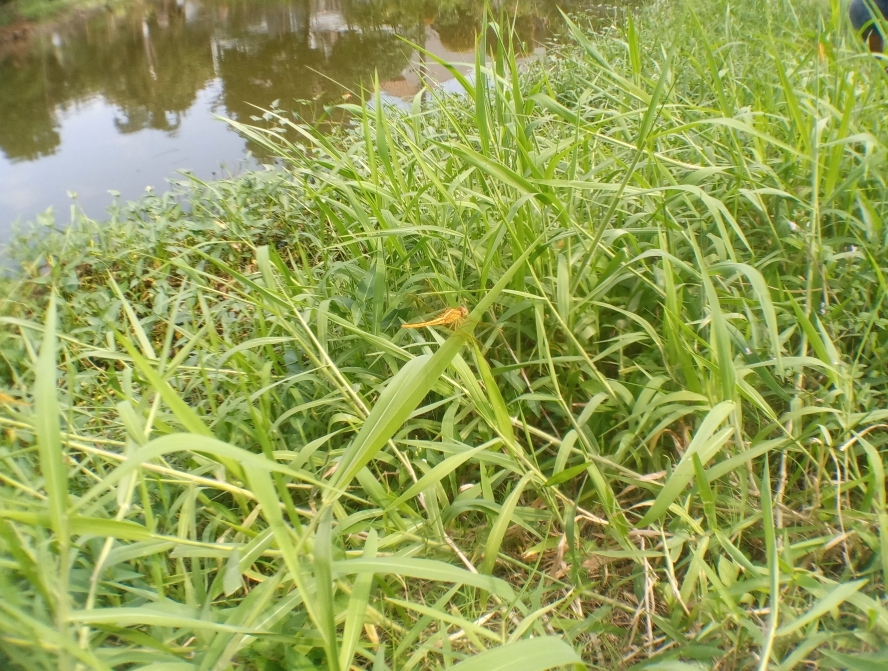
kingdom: Animalia
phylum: Arthropoda
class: Insecta
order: Odonata
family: Libellulidae
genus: Crocothemis
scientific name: Crocothemis servilia
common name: Scarlet skimmer
